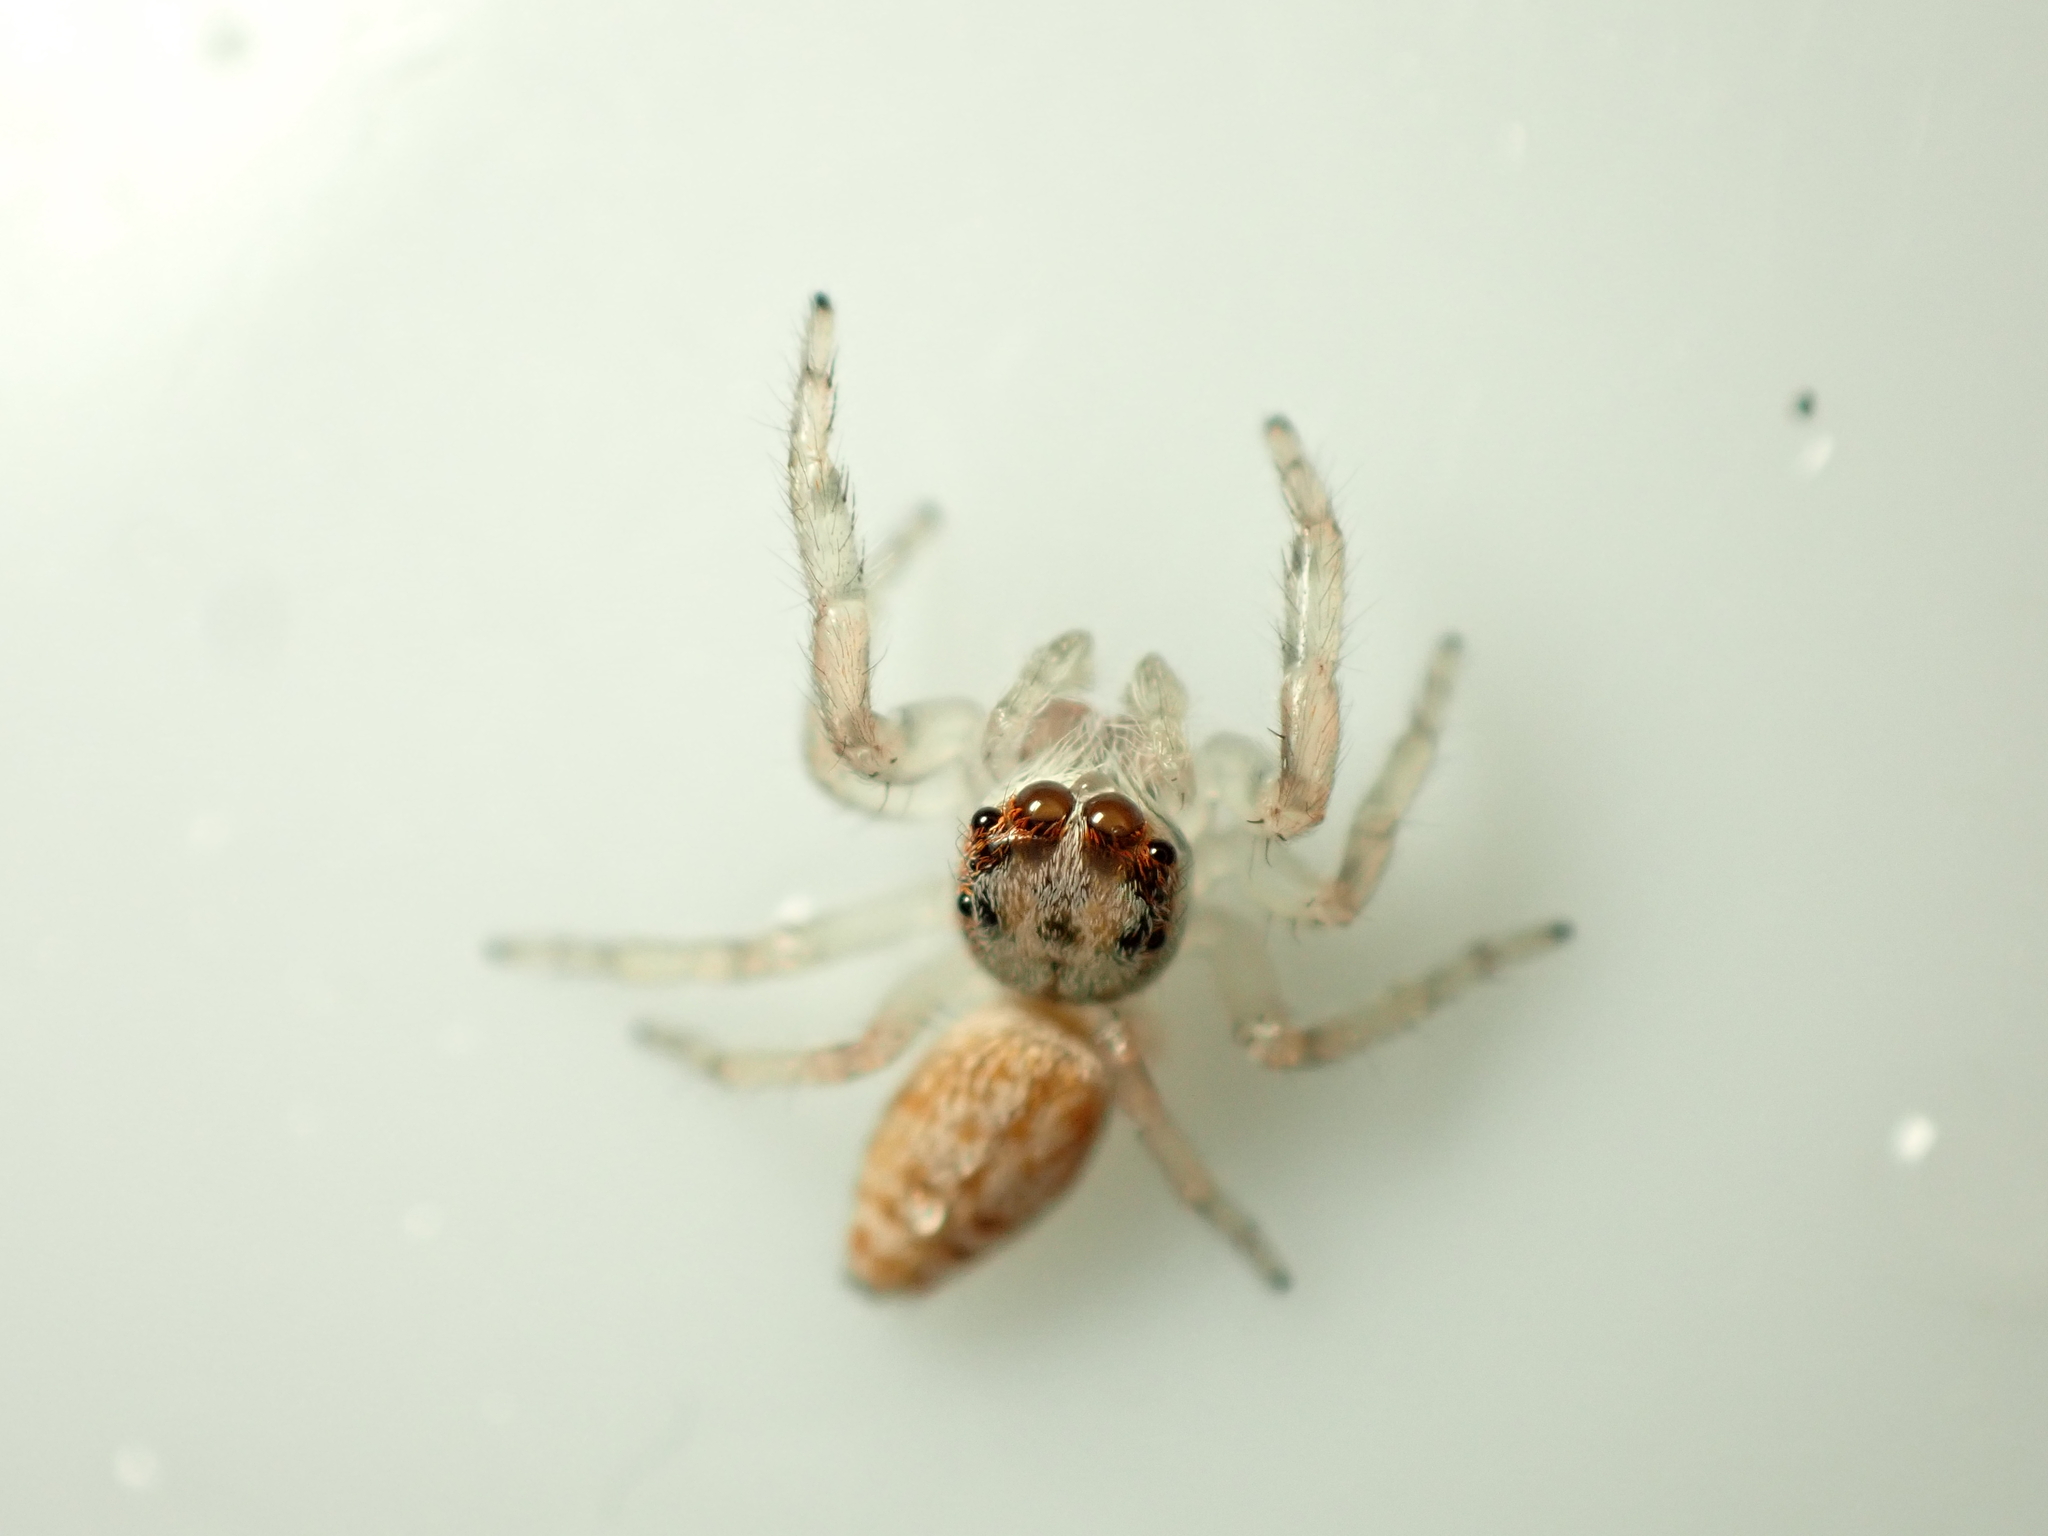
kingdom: Animalia
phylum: Arthropoda
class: Arachnida
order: Araneae
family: Salticidae
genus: Opisthoncus
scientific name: Opisthoncus polyphemus
